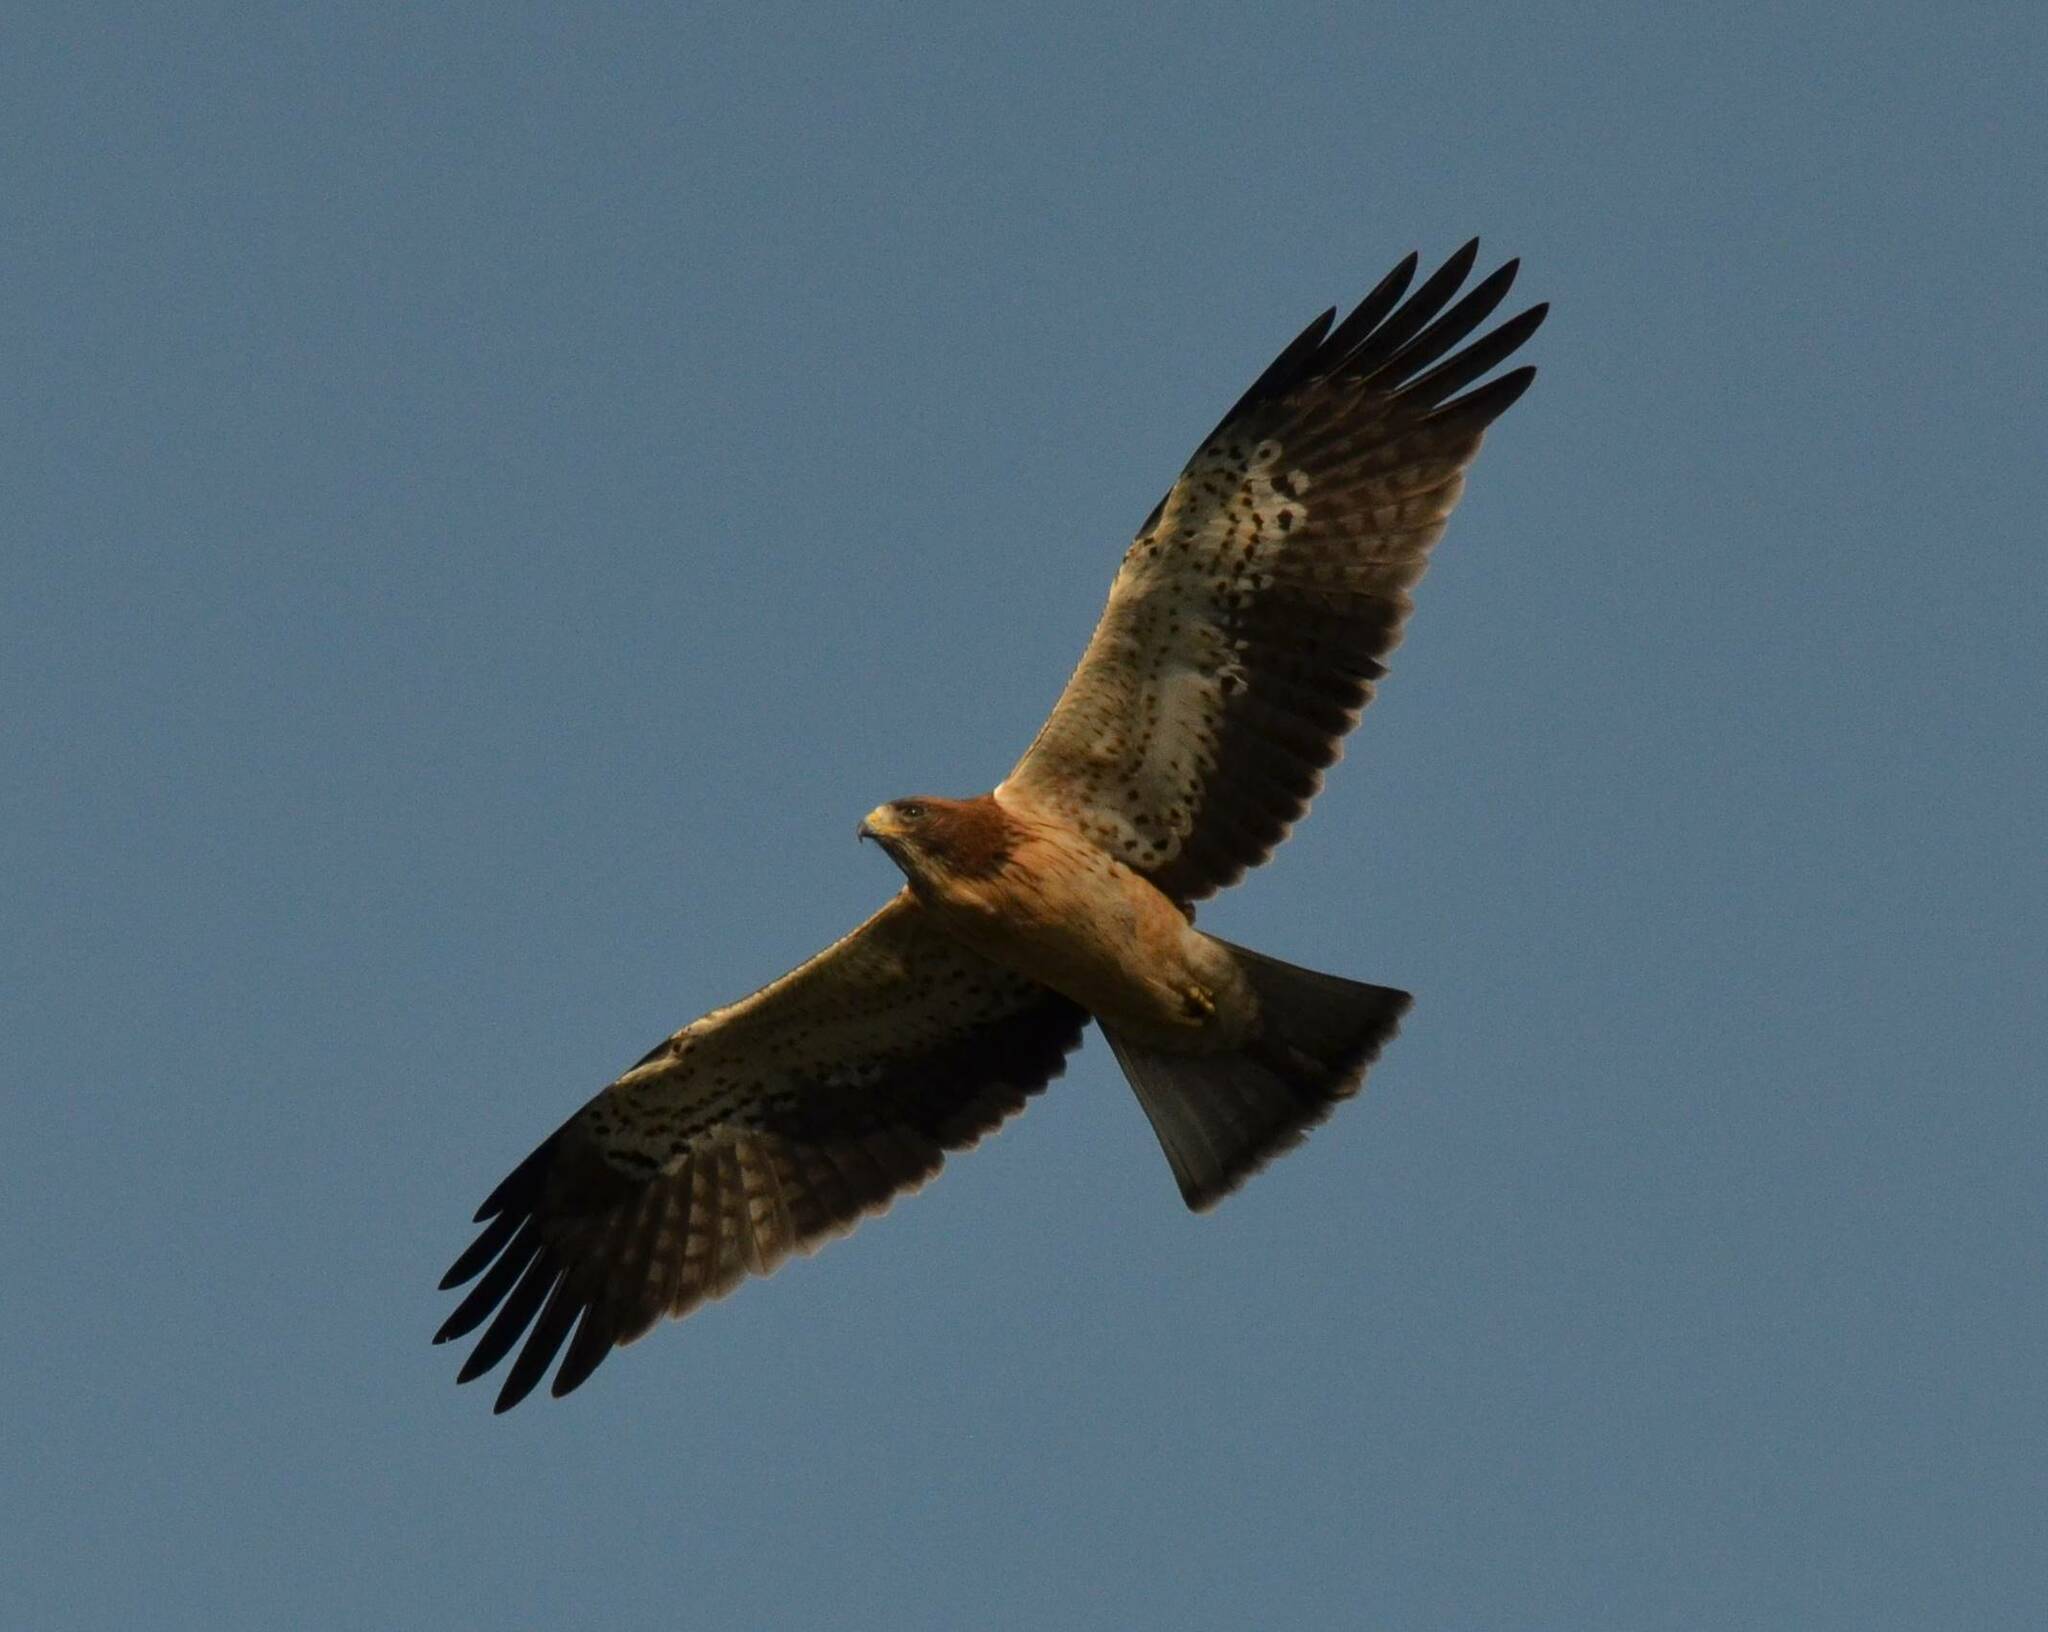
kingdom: Animalia
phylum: Chordata
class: Aves
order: Accipitriformes
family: Accipitridae
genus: Hieraaetus
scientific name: Hieraaetus pennatus
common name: Booted eagle
